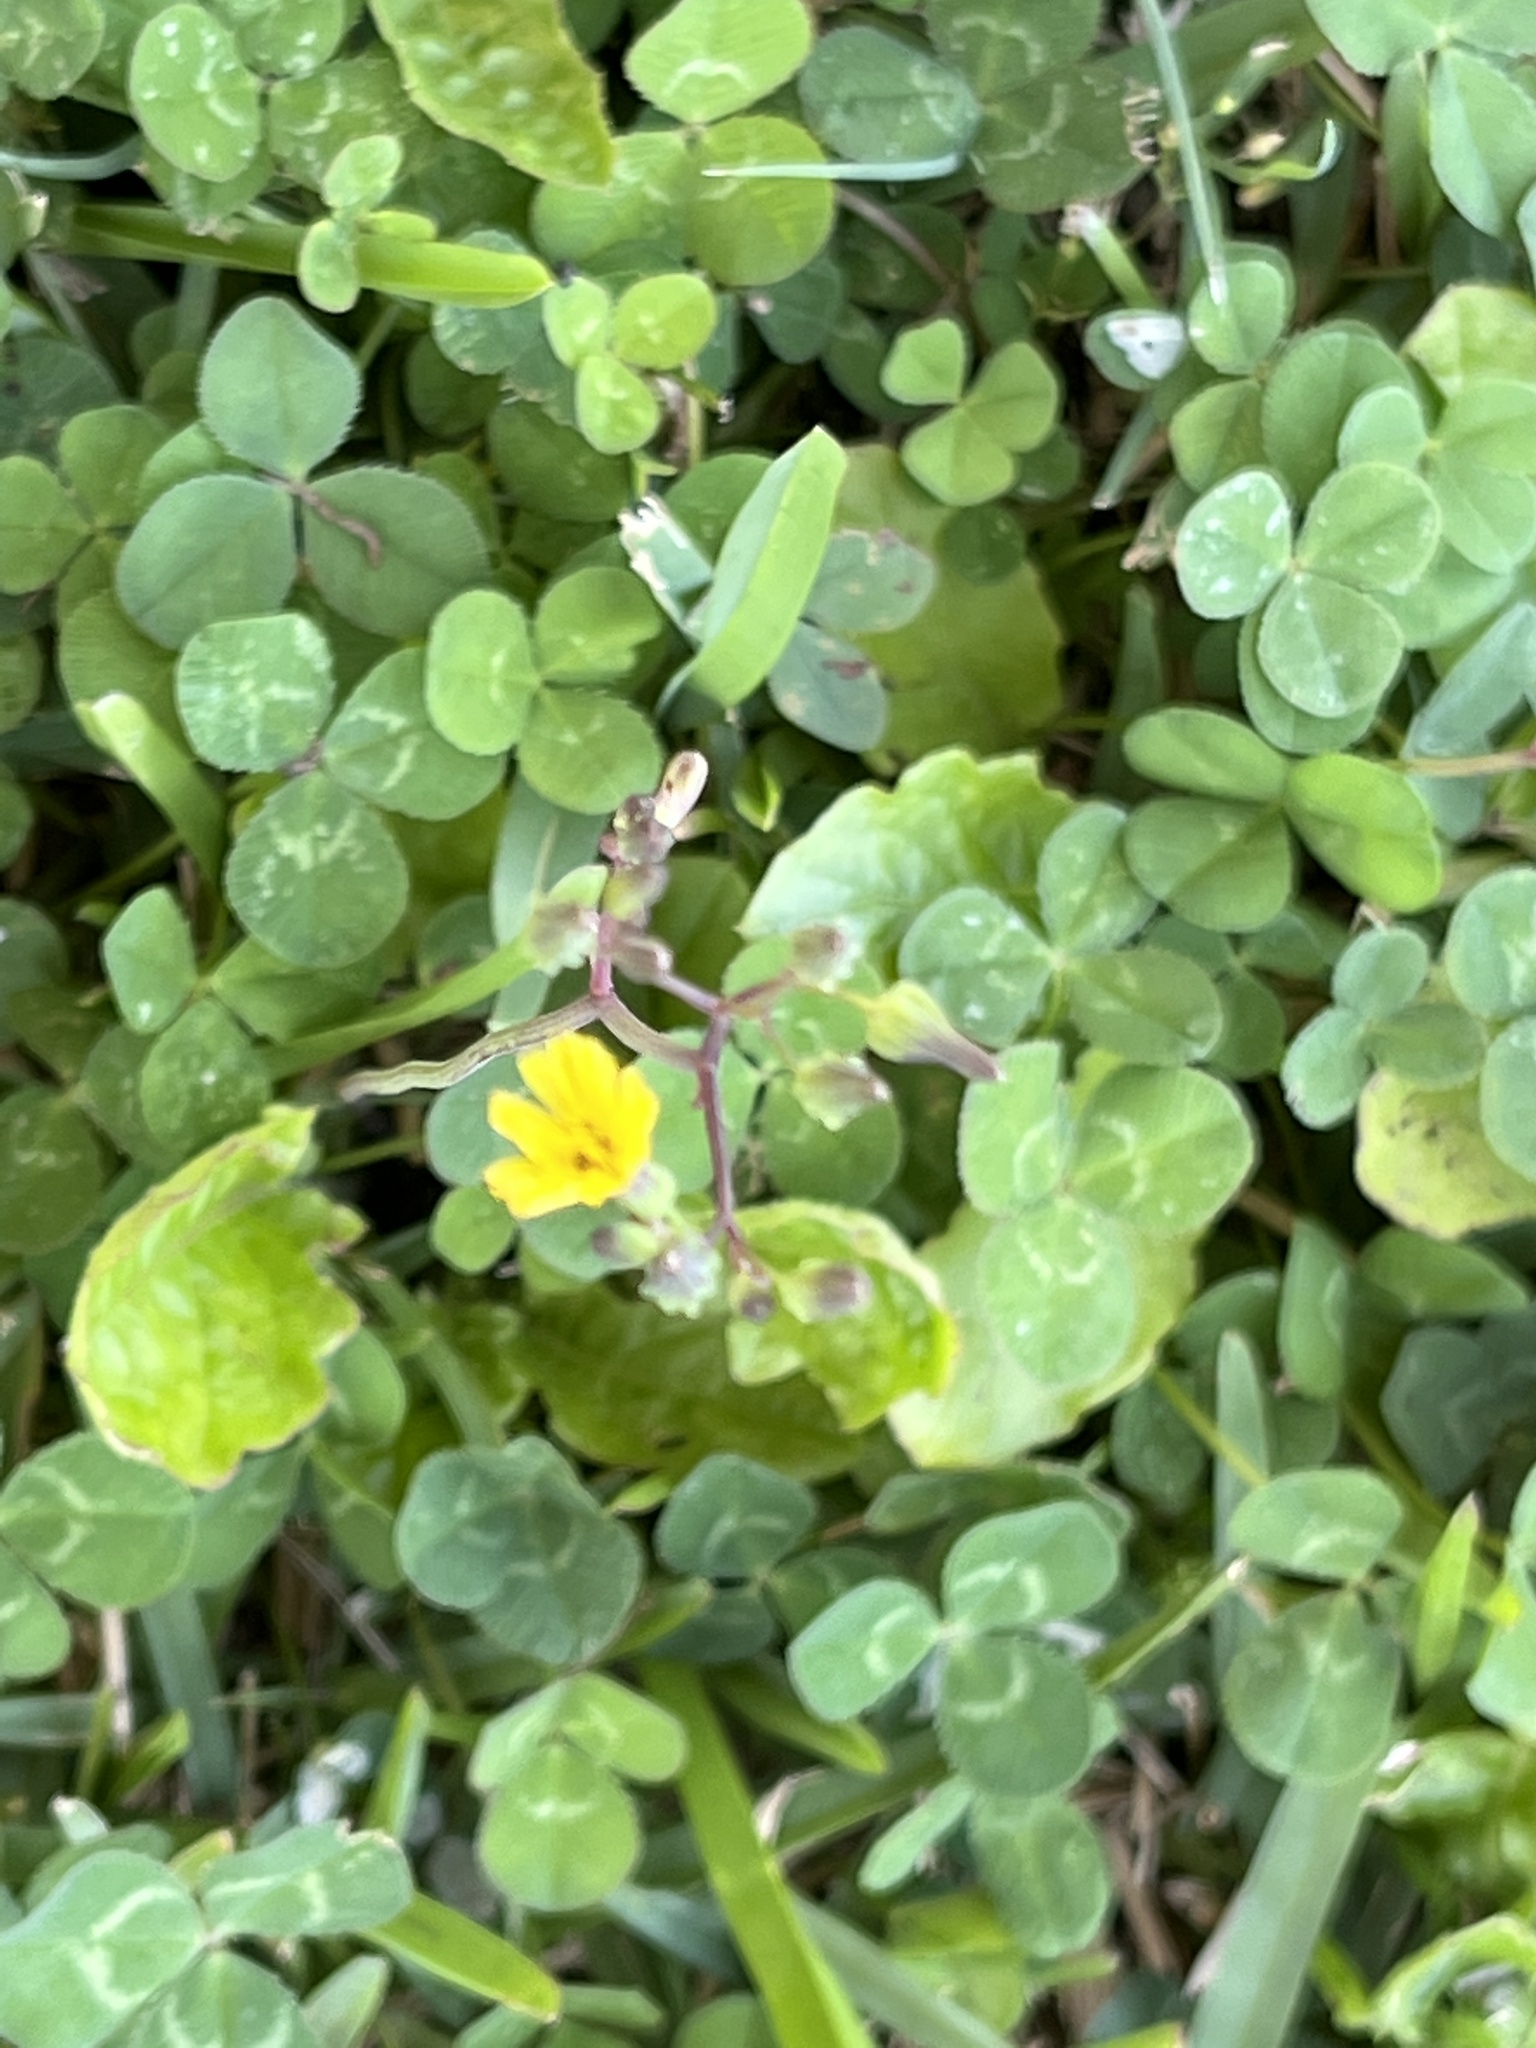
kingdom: Plantae
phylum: Tracheophyta
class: Magnoliopsida
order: Asterales
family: Asteraceae
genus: Youngia
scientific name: Youngia japonica
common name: Oriental false hawksbeard
